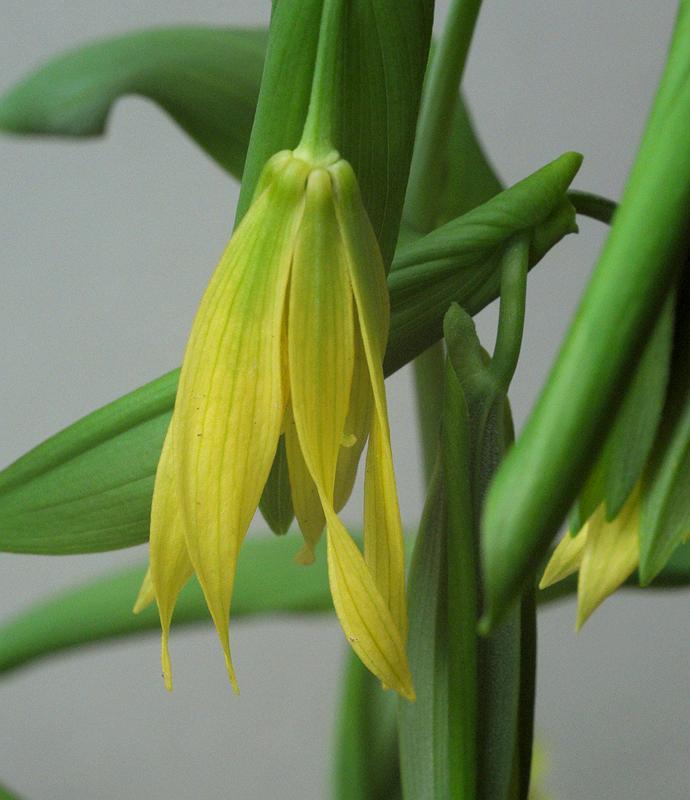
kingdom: Plantae
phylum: Tracheophyta
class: Liliopsida
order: Liliales
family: Colchicaceae
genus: Uvularia
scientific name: Uvularia grandiflora
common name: Bellwort
